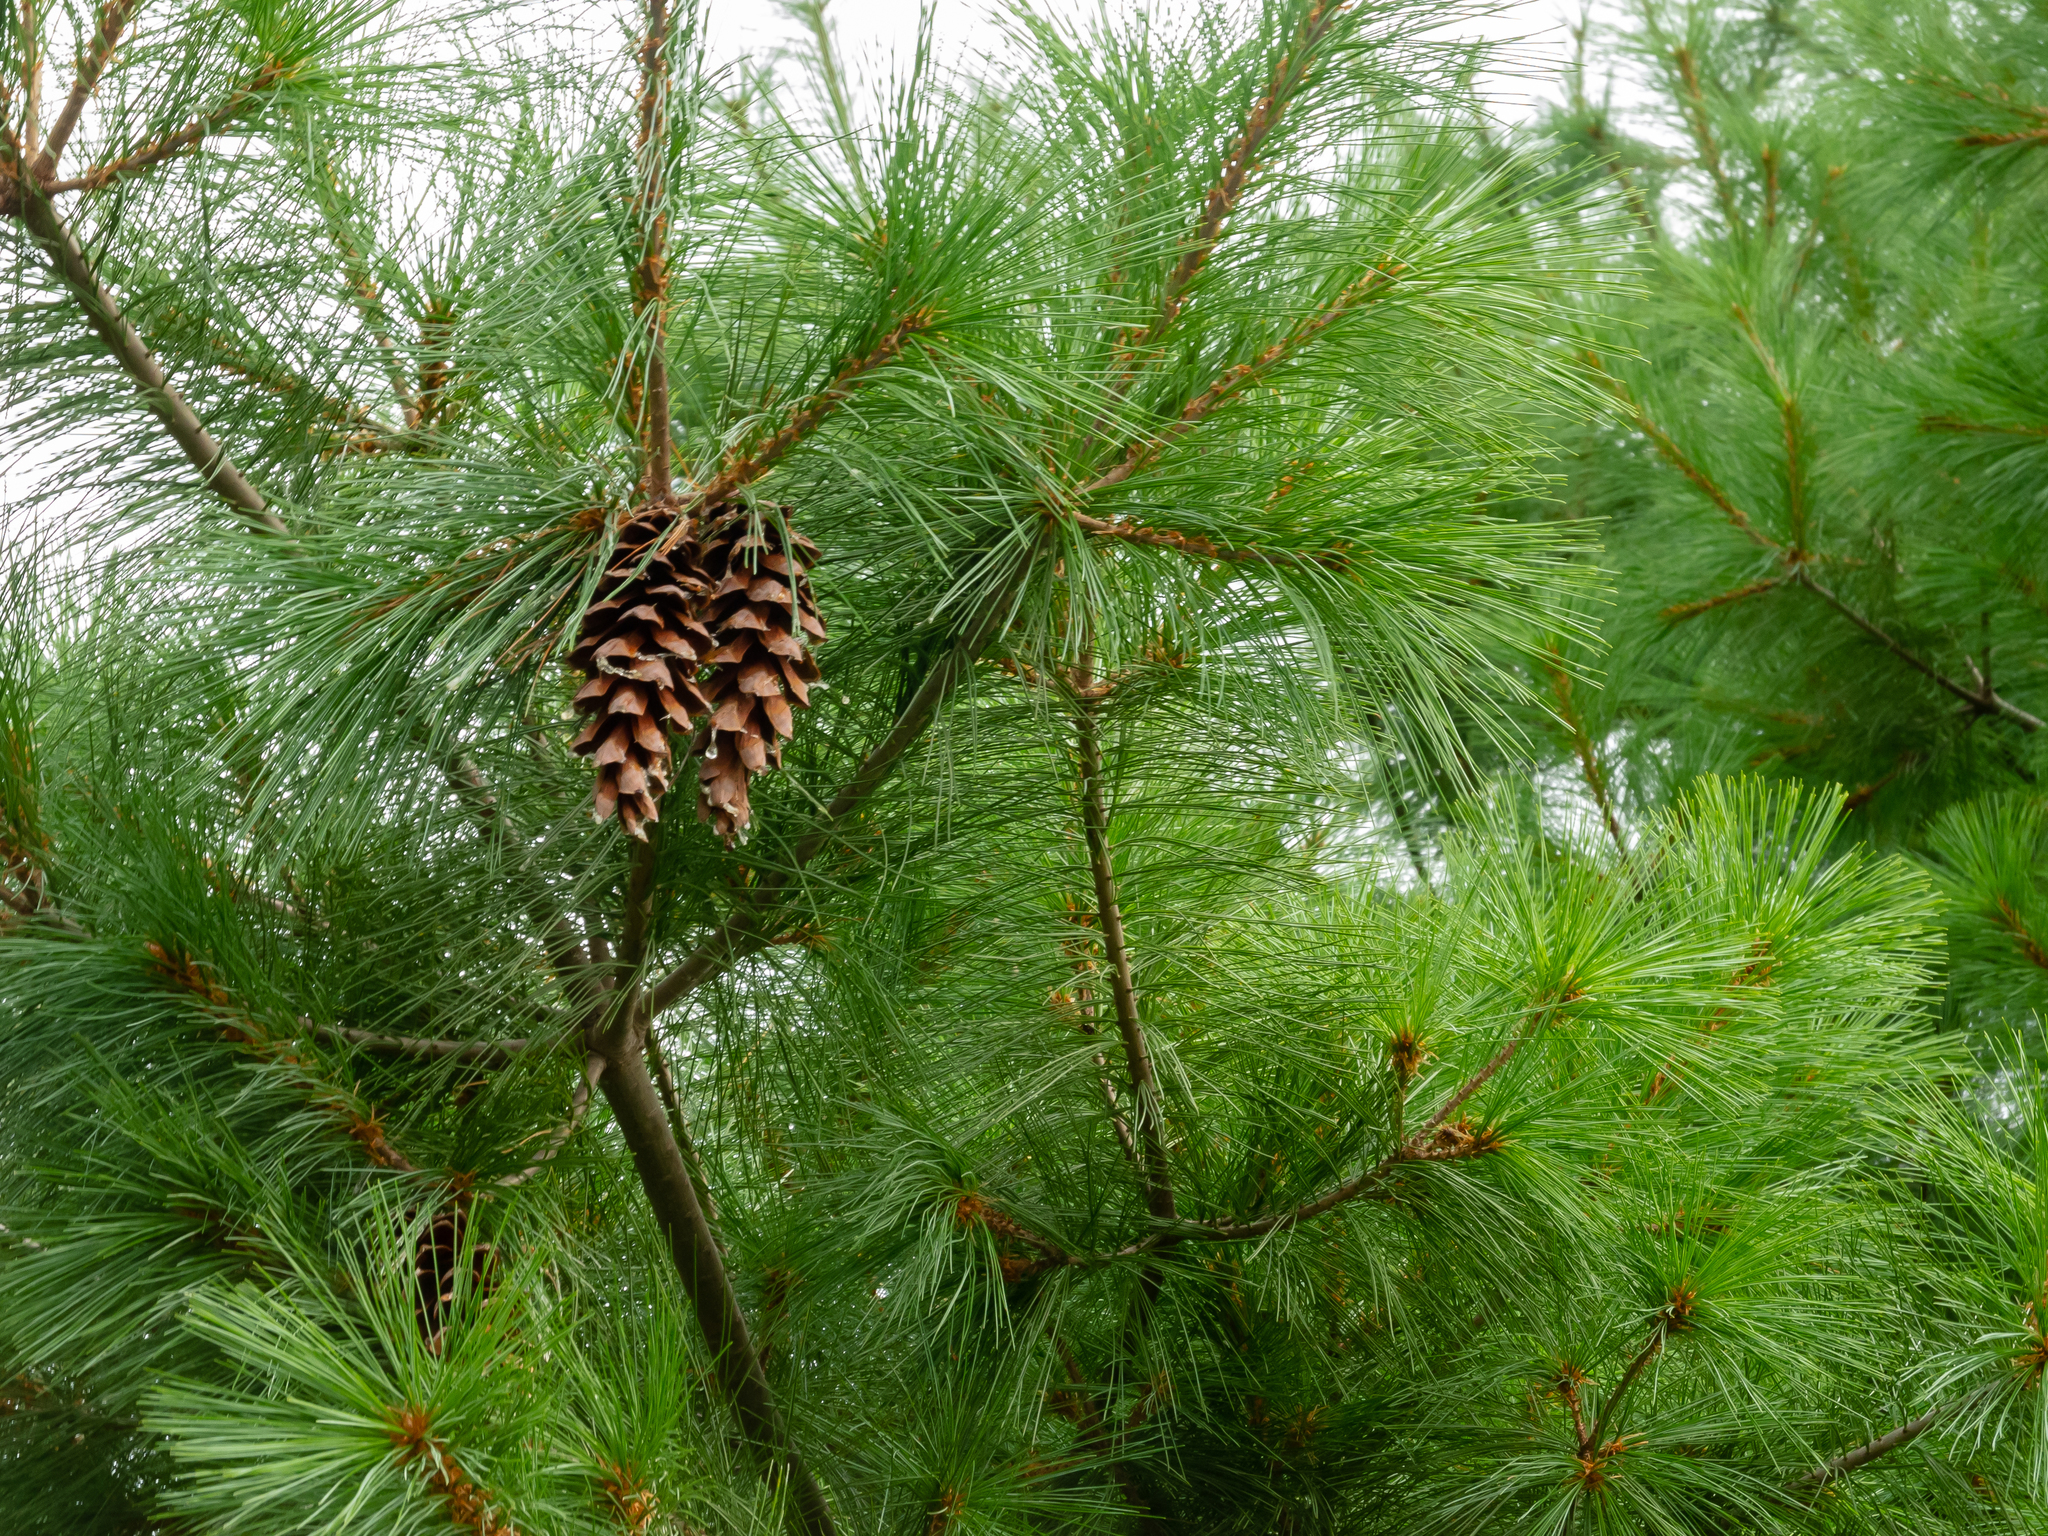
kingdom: Plantae
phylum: Tracheophyta
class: Pinopsida
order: Pinales
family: Pinaceae
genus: Pinus
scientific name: Pinus strobus
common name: Weymouth pine
